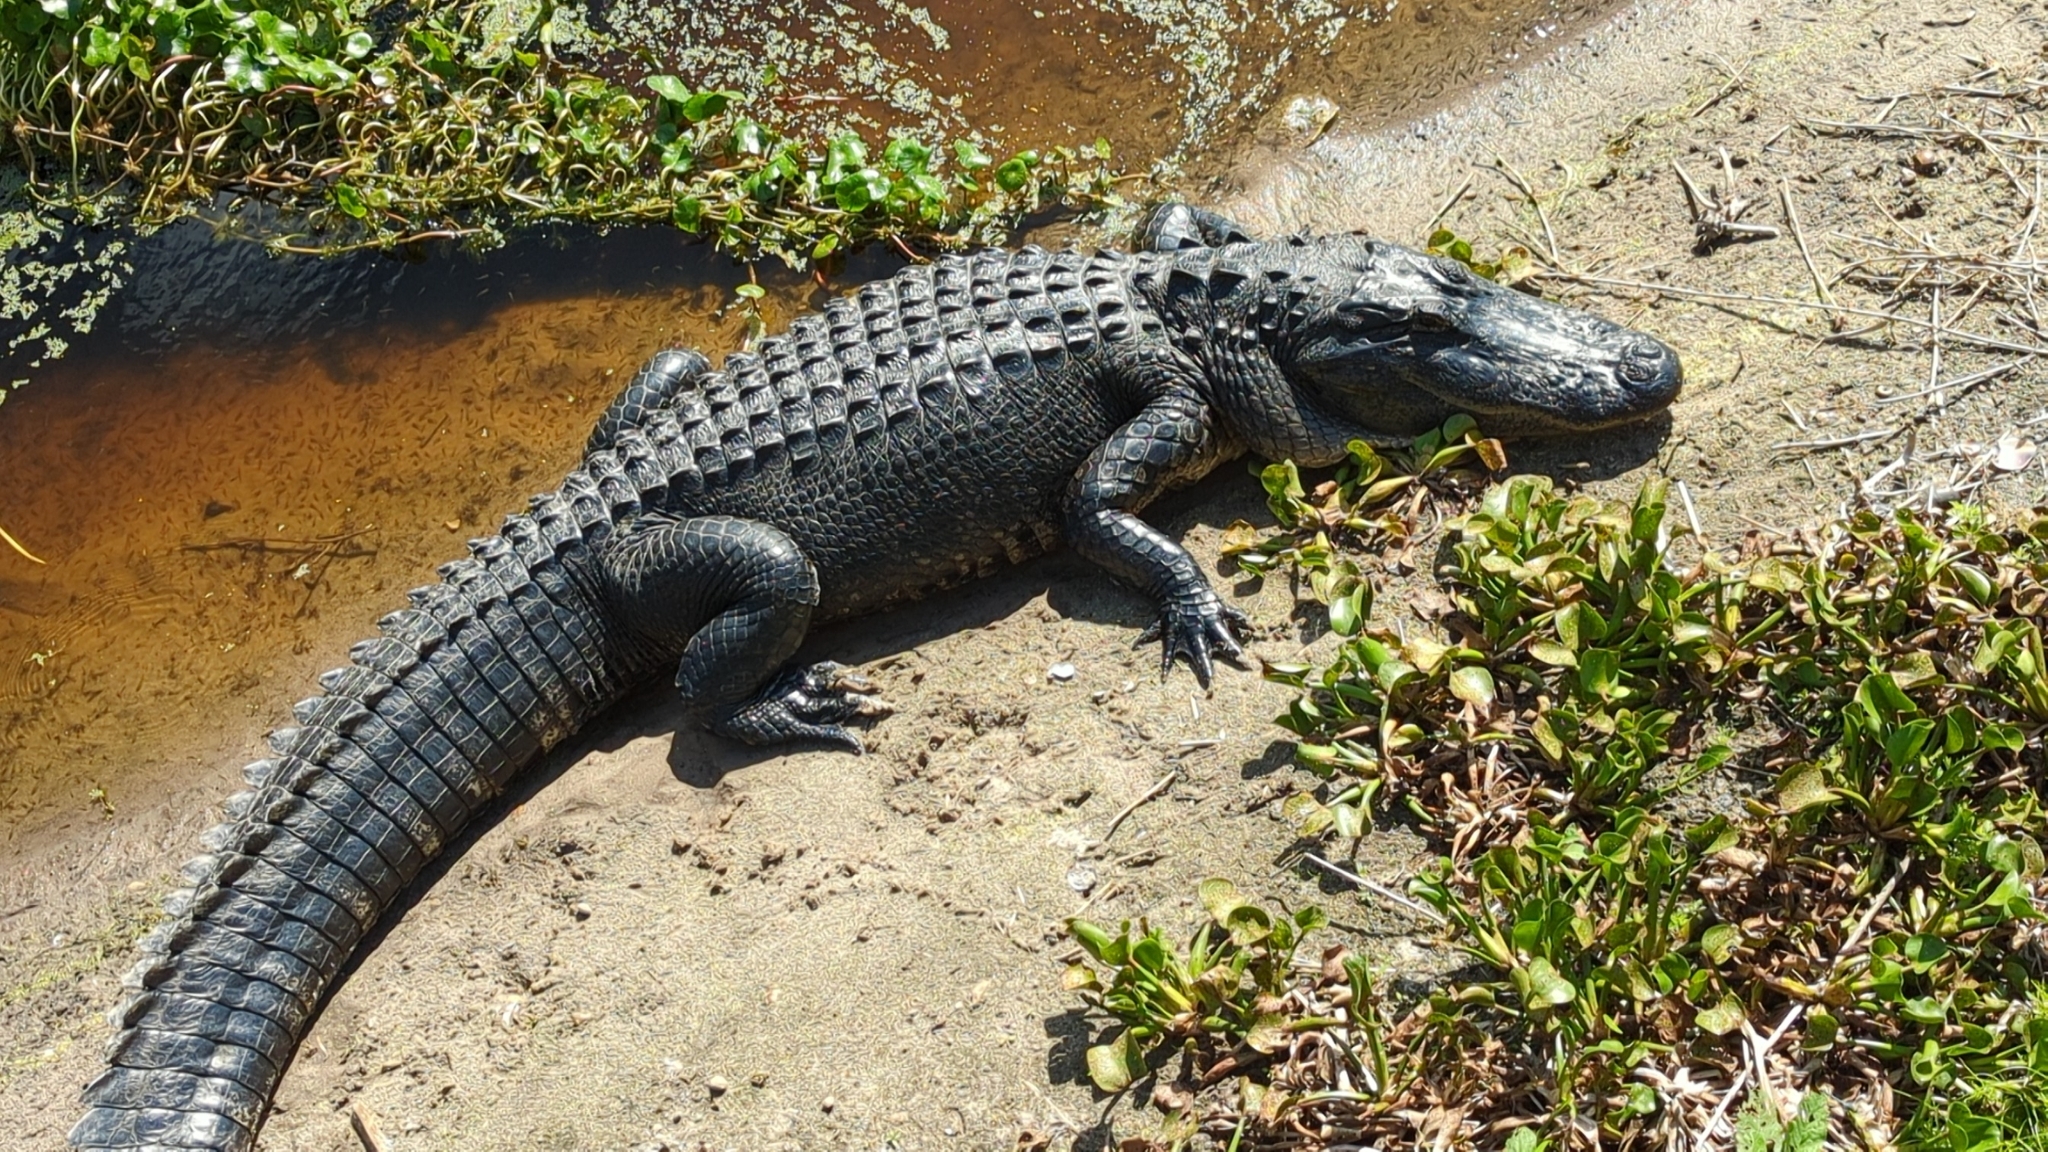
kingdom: Animalia
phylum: Chordata
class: Crocodylia
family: Alligatoridae
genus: Alligator
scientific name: Alligator mississippiensis
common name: American alligator
